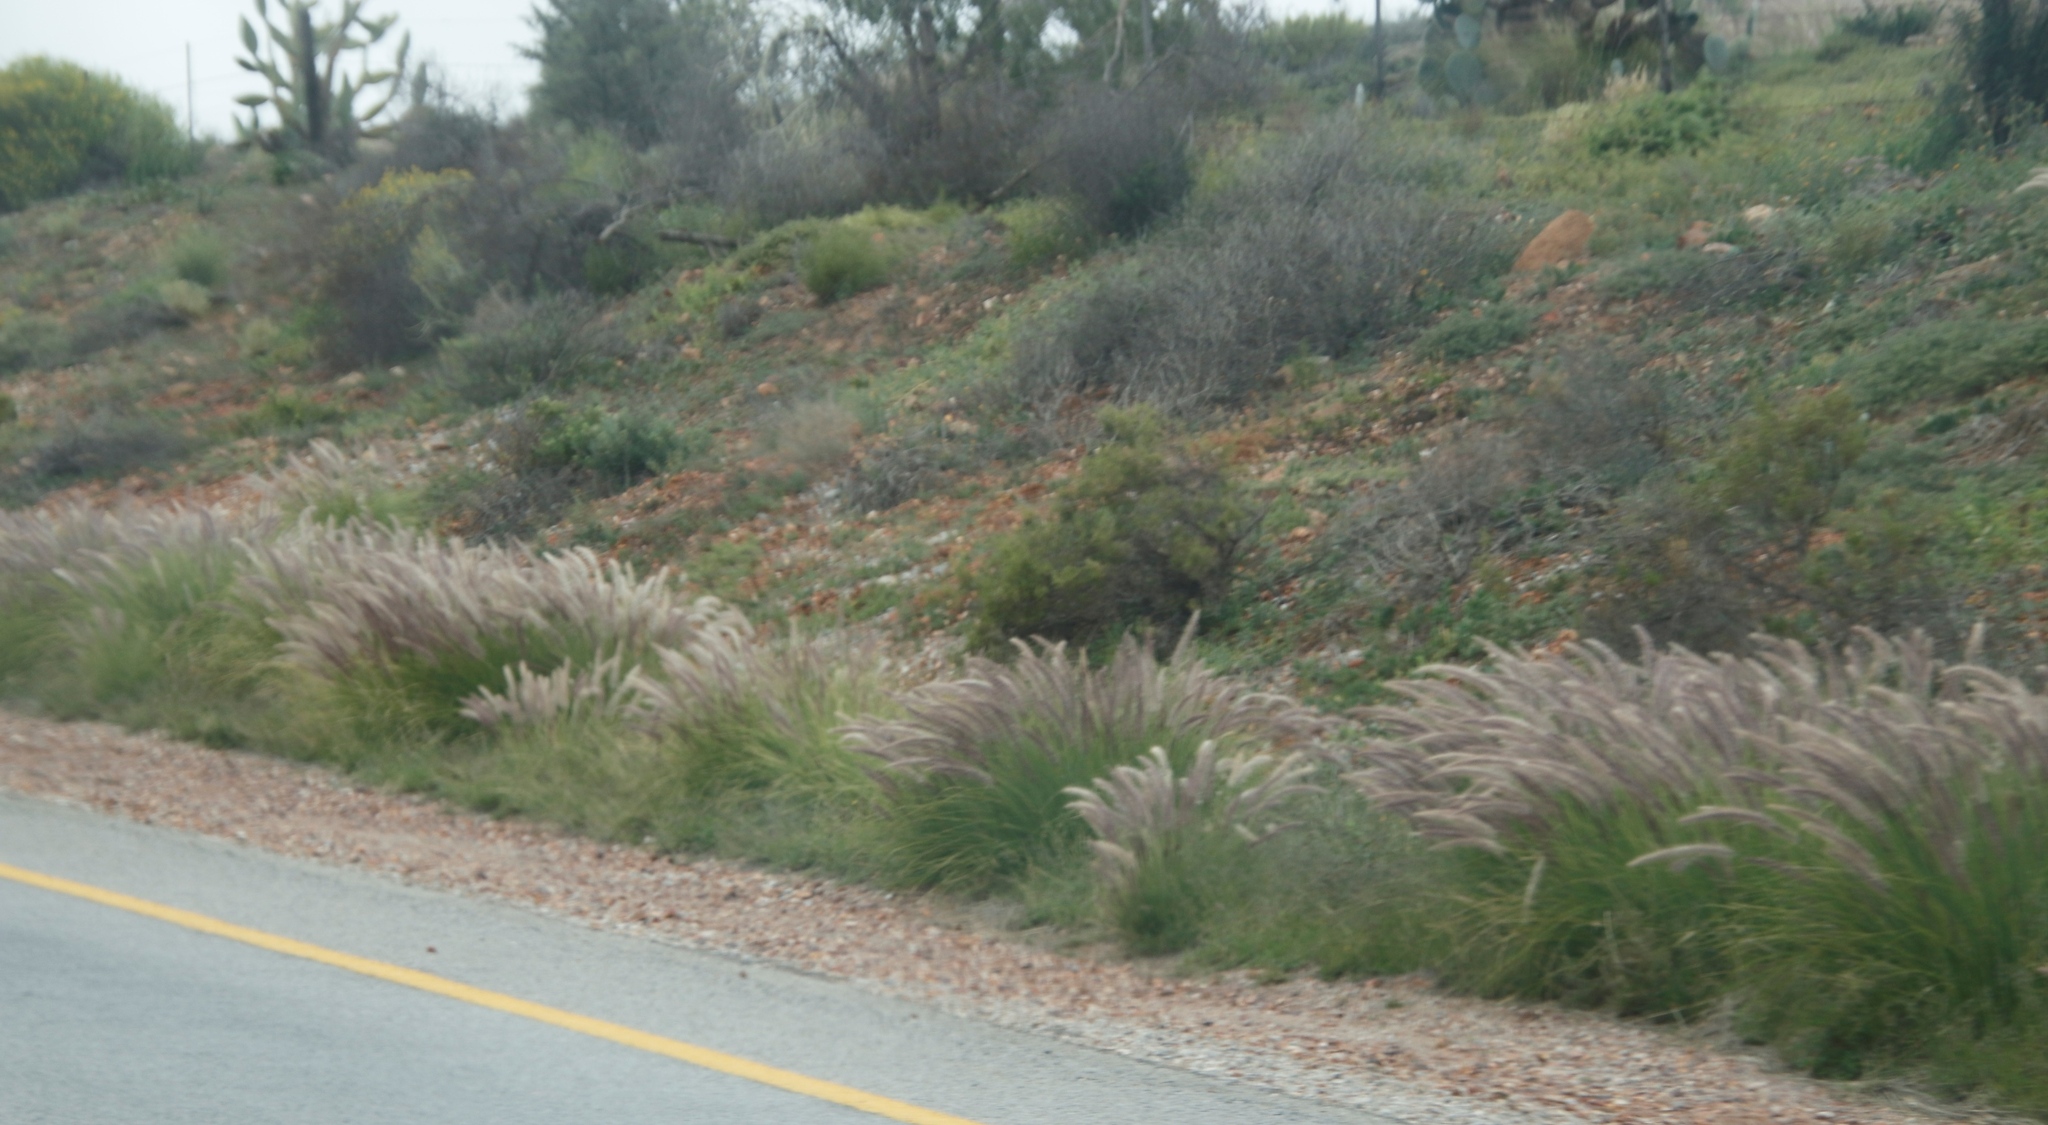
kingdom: Plantae
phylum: Tracheophyta
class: Liliopsida
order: Poales
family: Poaceae
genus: Cenchrus
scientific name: Cenchrus setaceus
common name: Crimson fountaingrass
